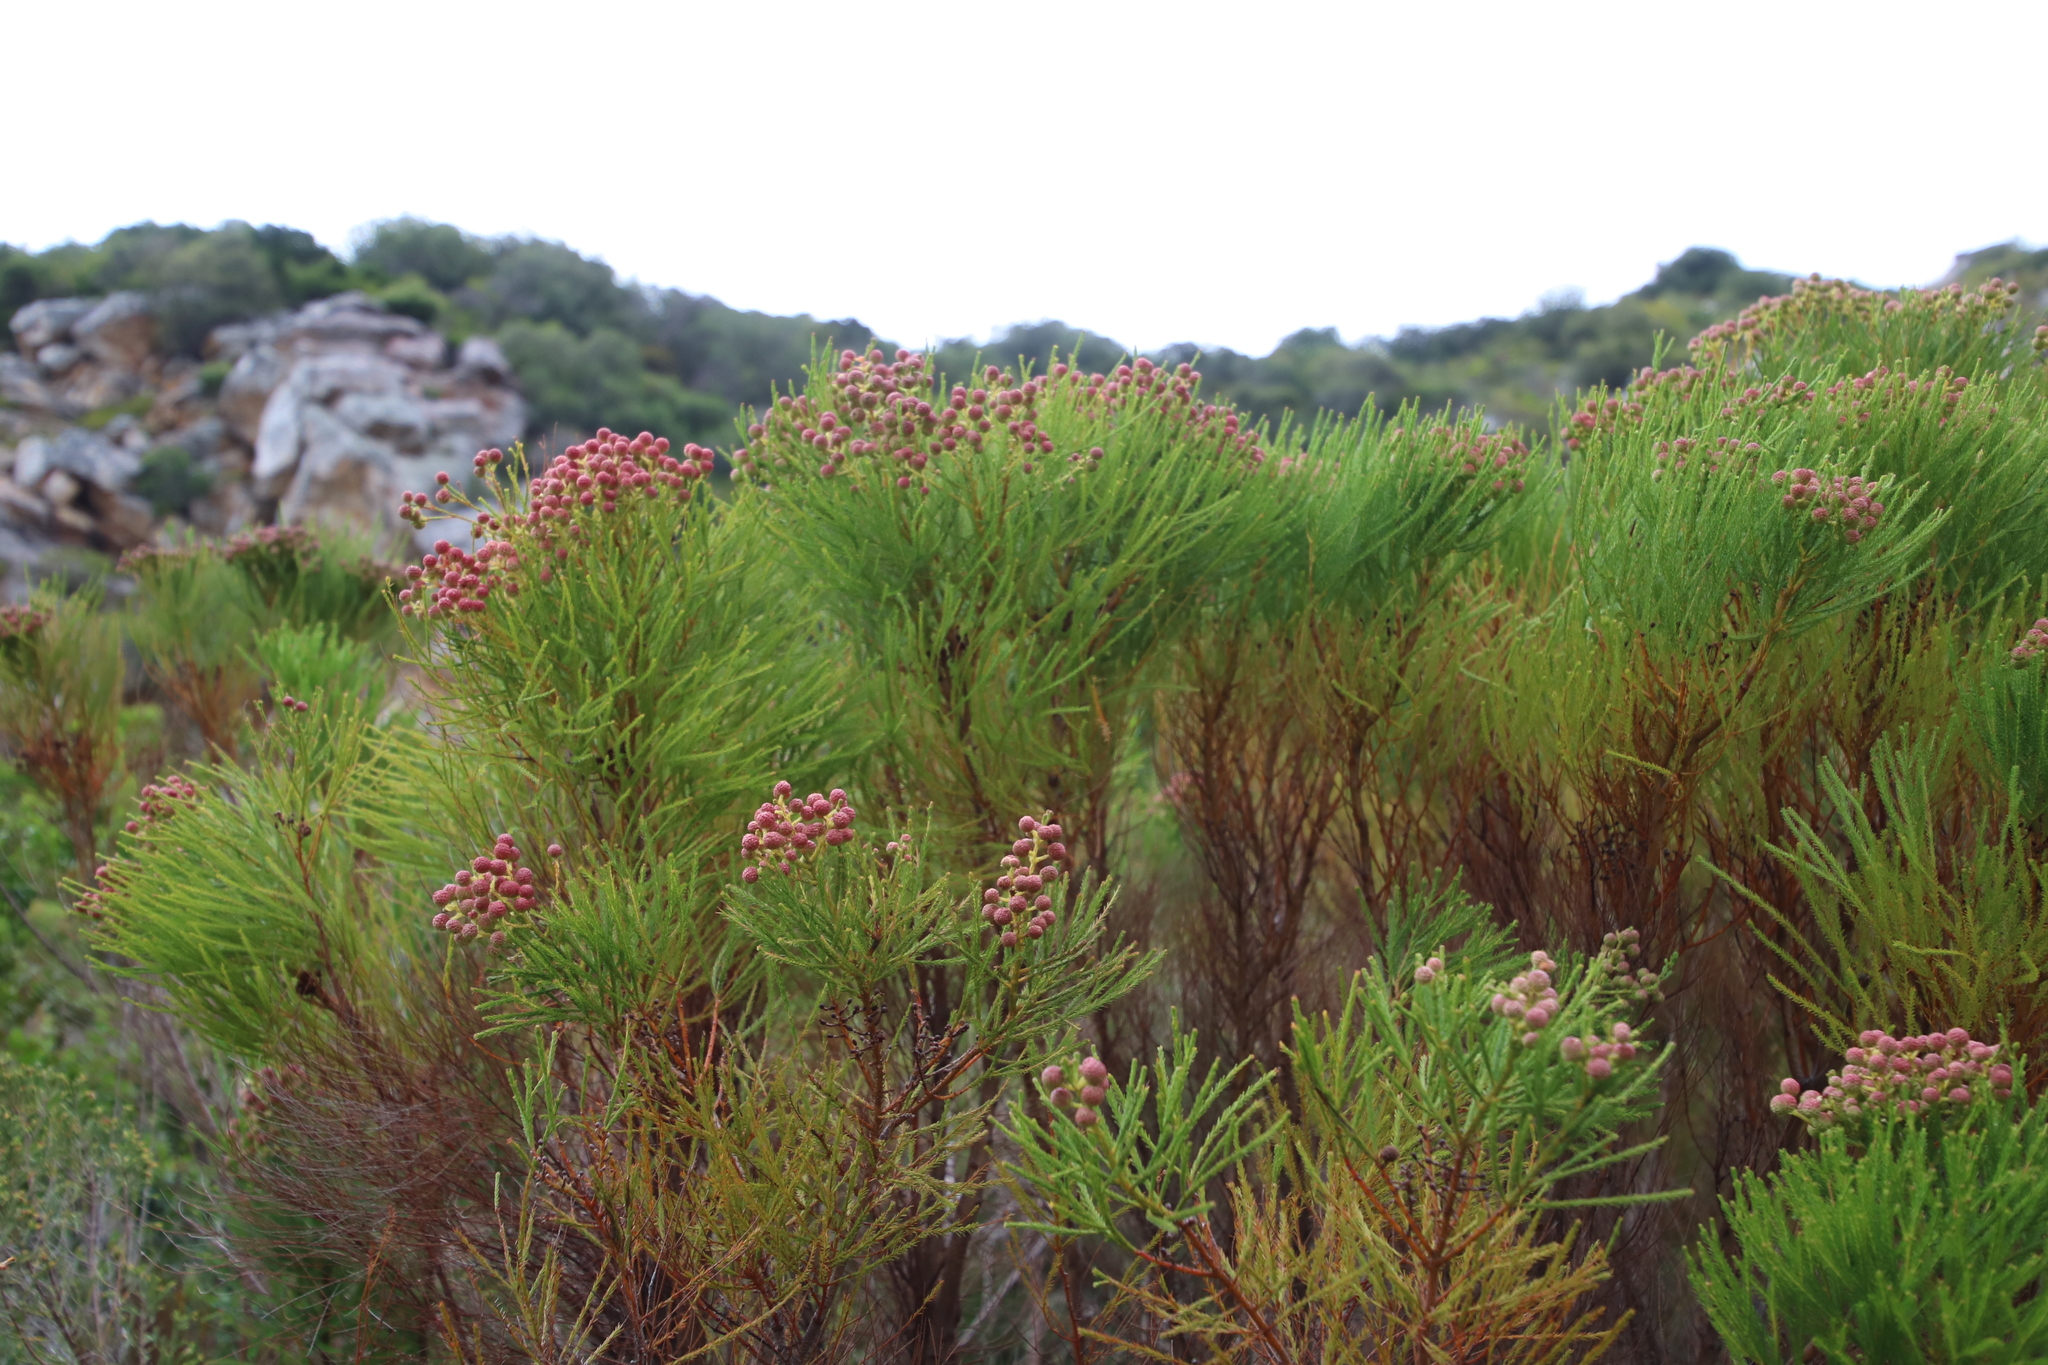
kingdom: Plantae
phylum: Tracheophyta
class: Magnoliopsida
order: Bruniales
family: Bruniaceae
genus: Berzelia
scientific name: Berzelia lanuginosa
